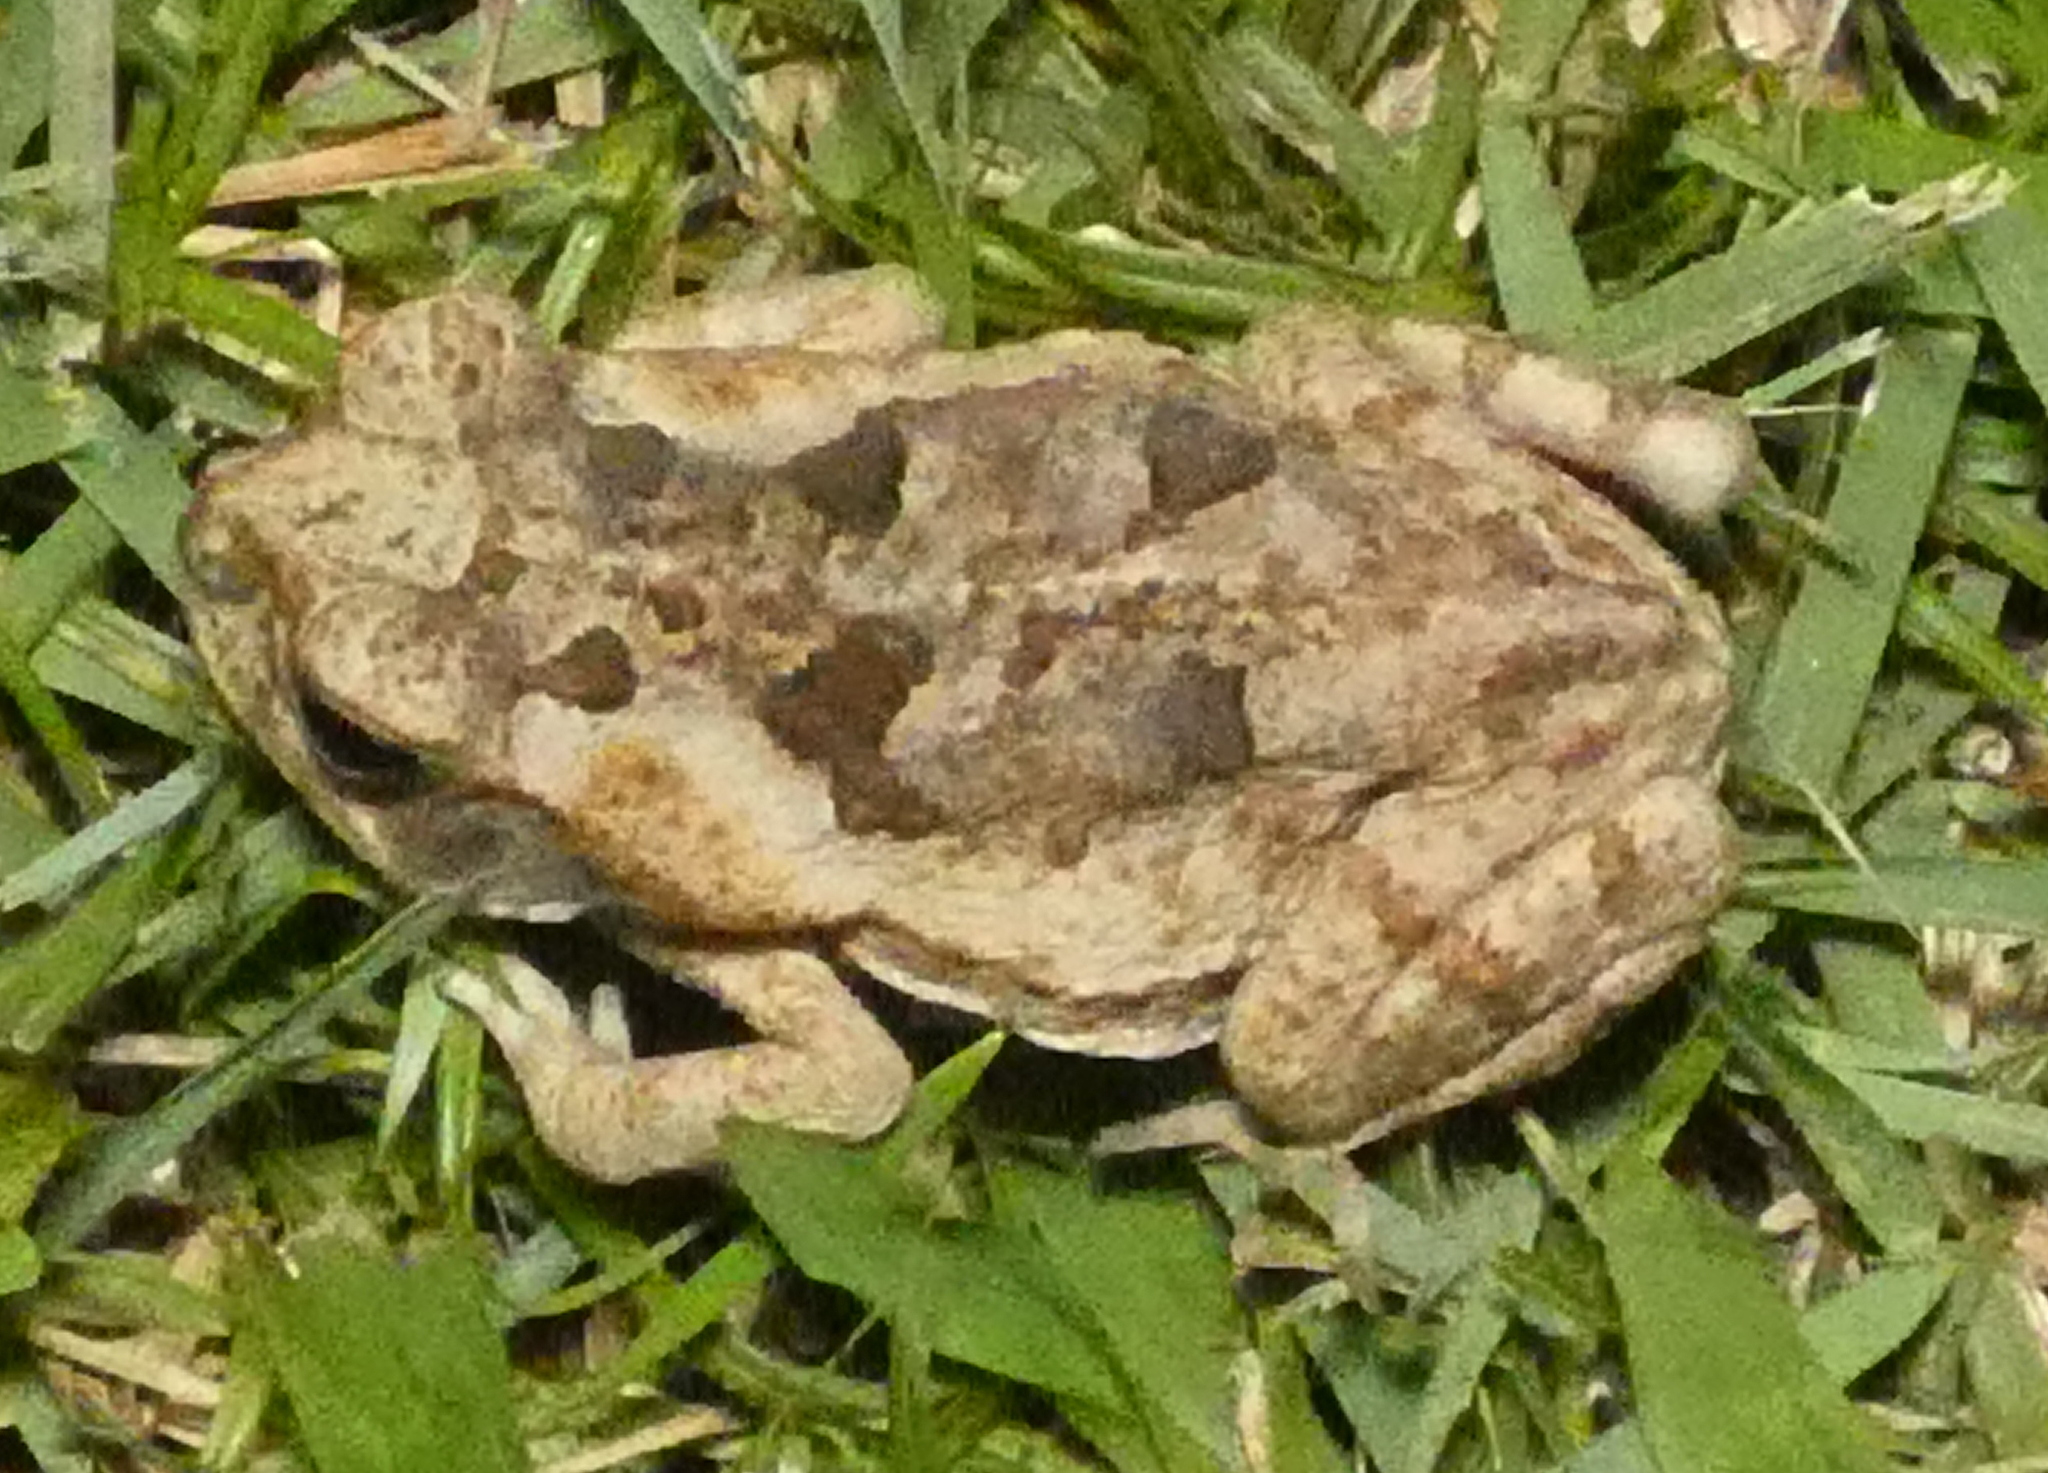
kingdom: Animalia
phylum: Chordata
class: Amphibia
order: Anura
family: Bufonidae
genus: Rhinella
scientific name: Rhinella diptycha
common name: Cope's toad
